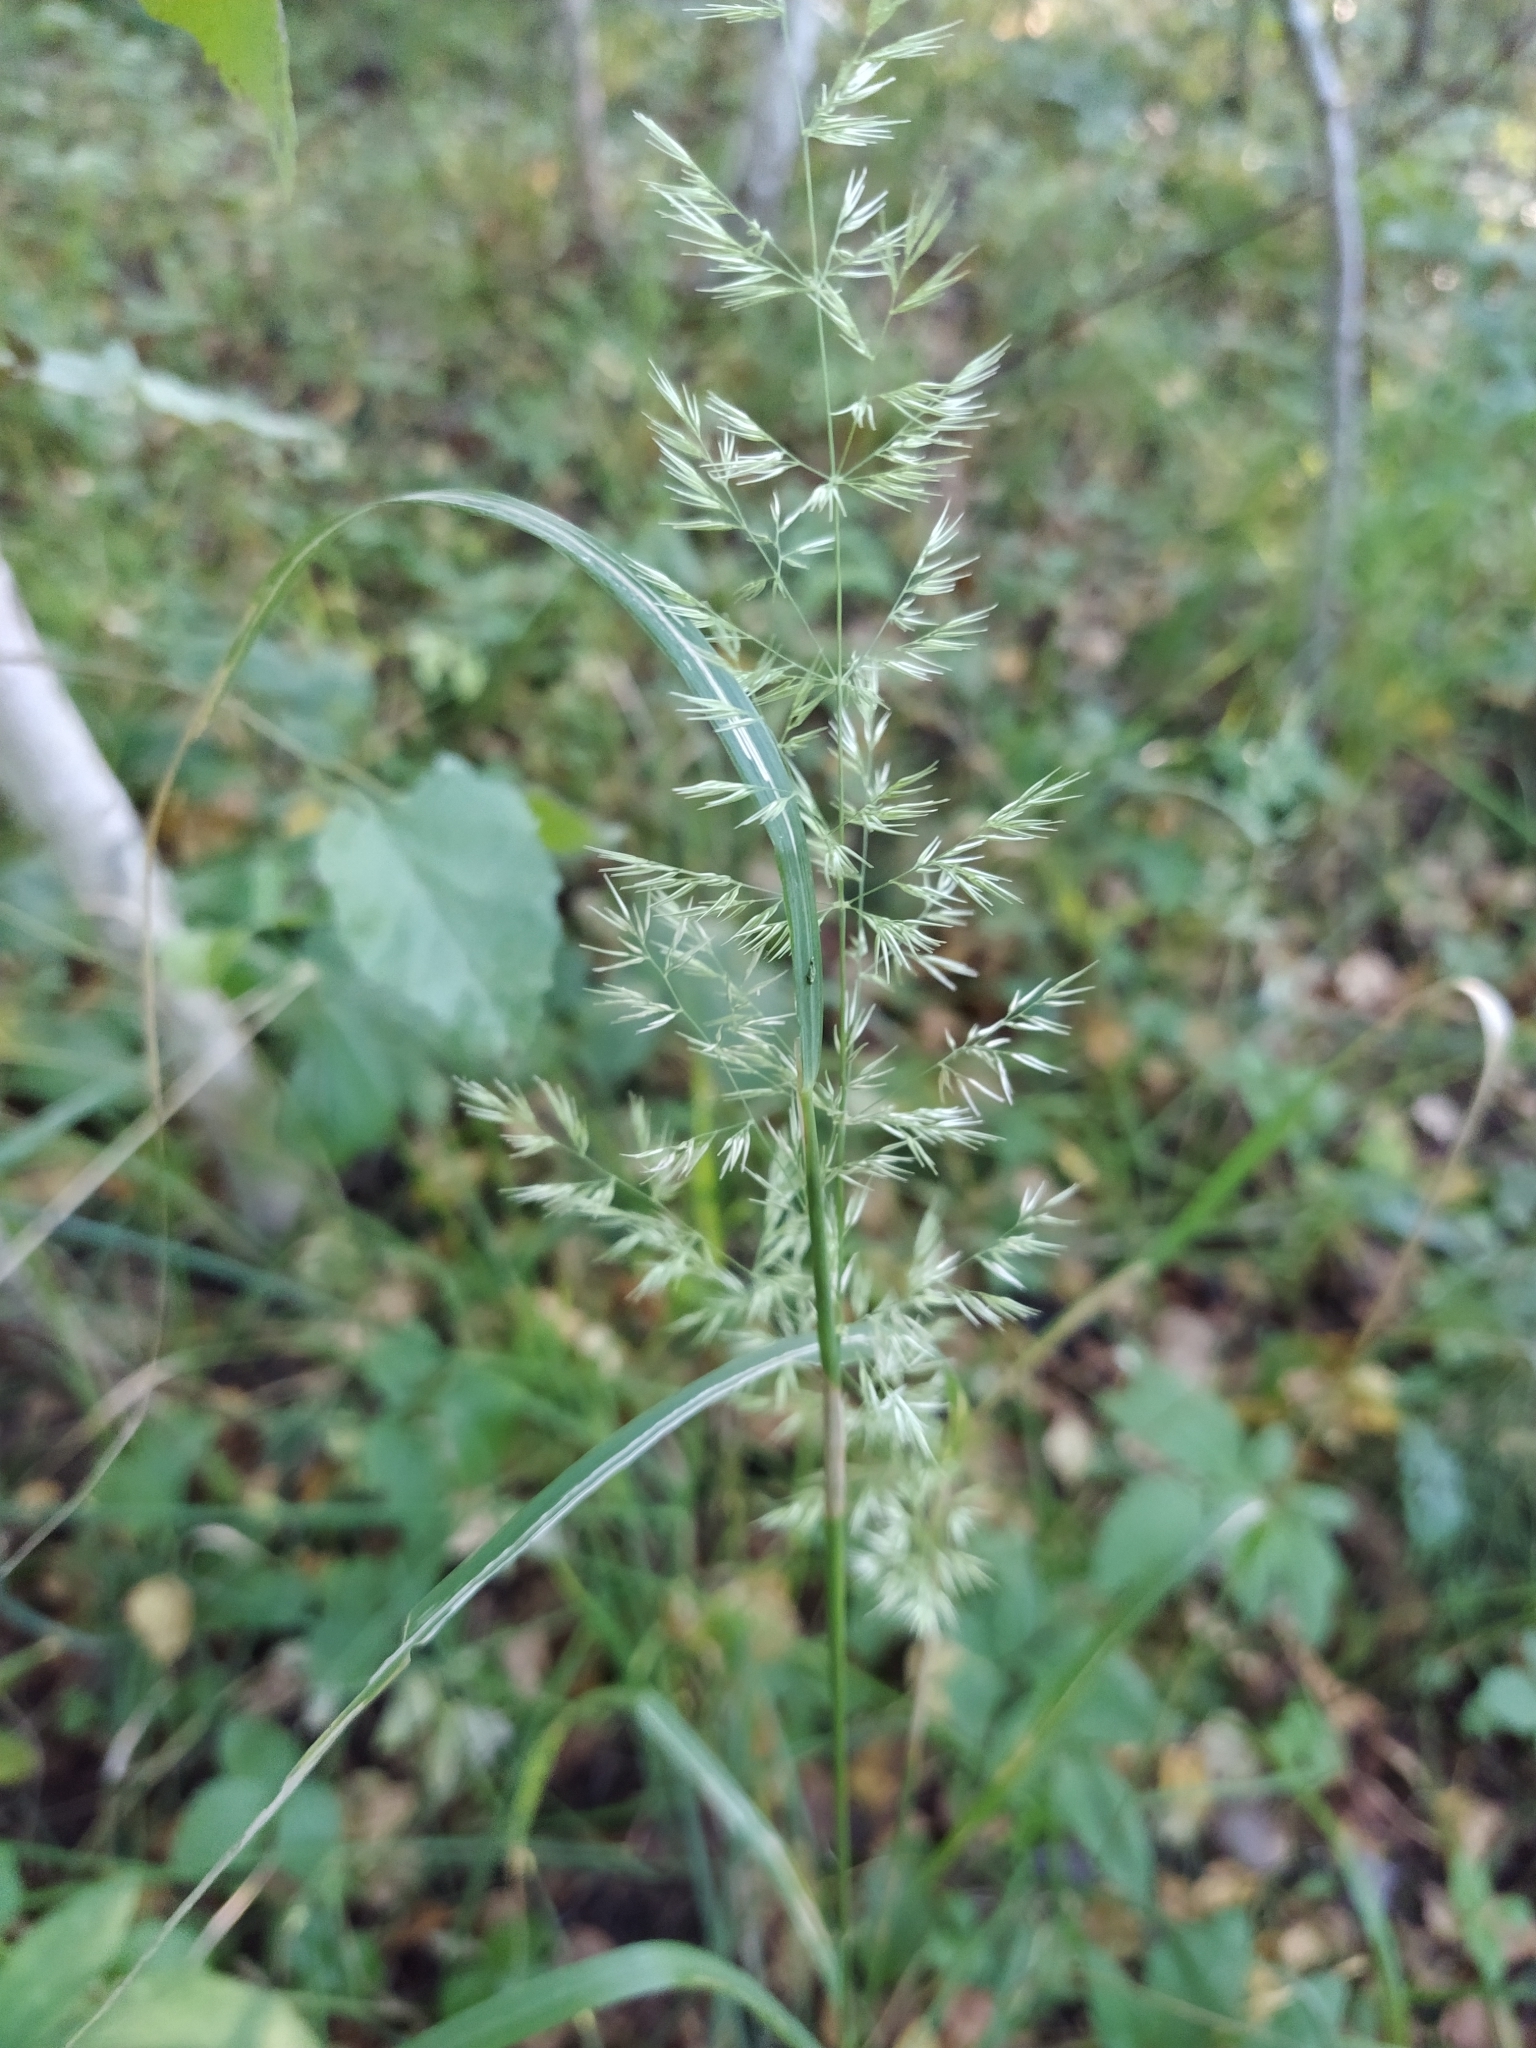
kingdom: Plantae
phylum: Tracheophyta
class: Liliopsida
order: Poales
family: Poaceae
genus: Calamagrostis
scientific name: Calamagrostis epigejos
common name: Wood small-reed
